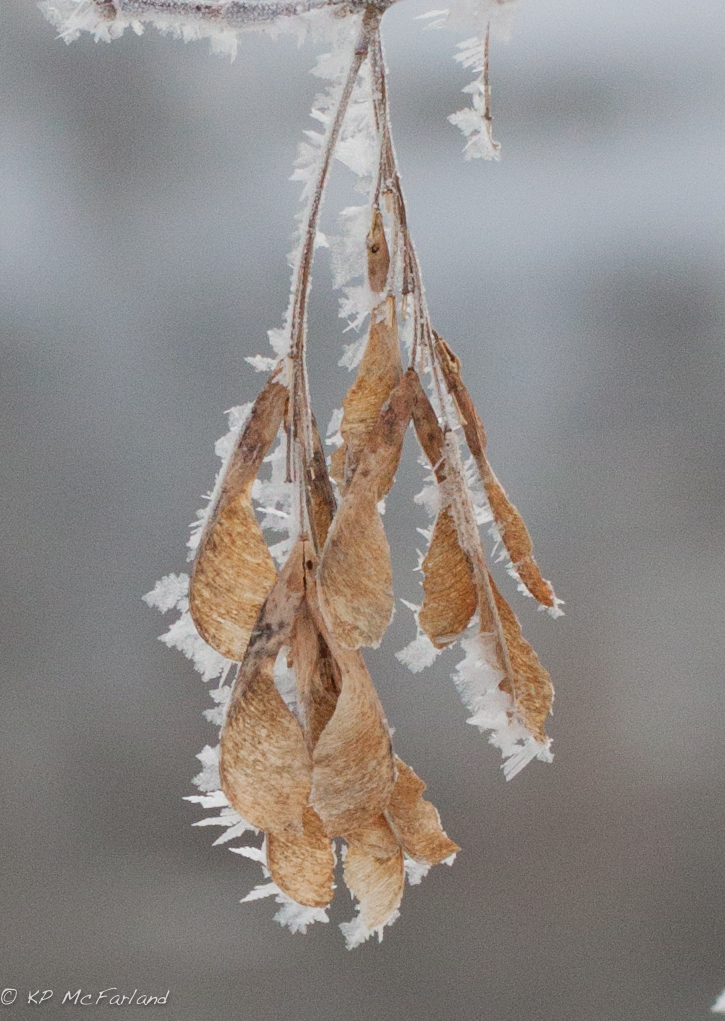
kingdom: Plantae
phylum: Tracheophyta
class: Magnoliopsida
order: Sapindales
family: Sapindaceae
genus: Acer
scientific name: Acer negundo
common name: Ashleaf maple
